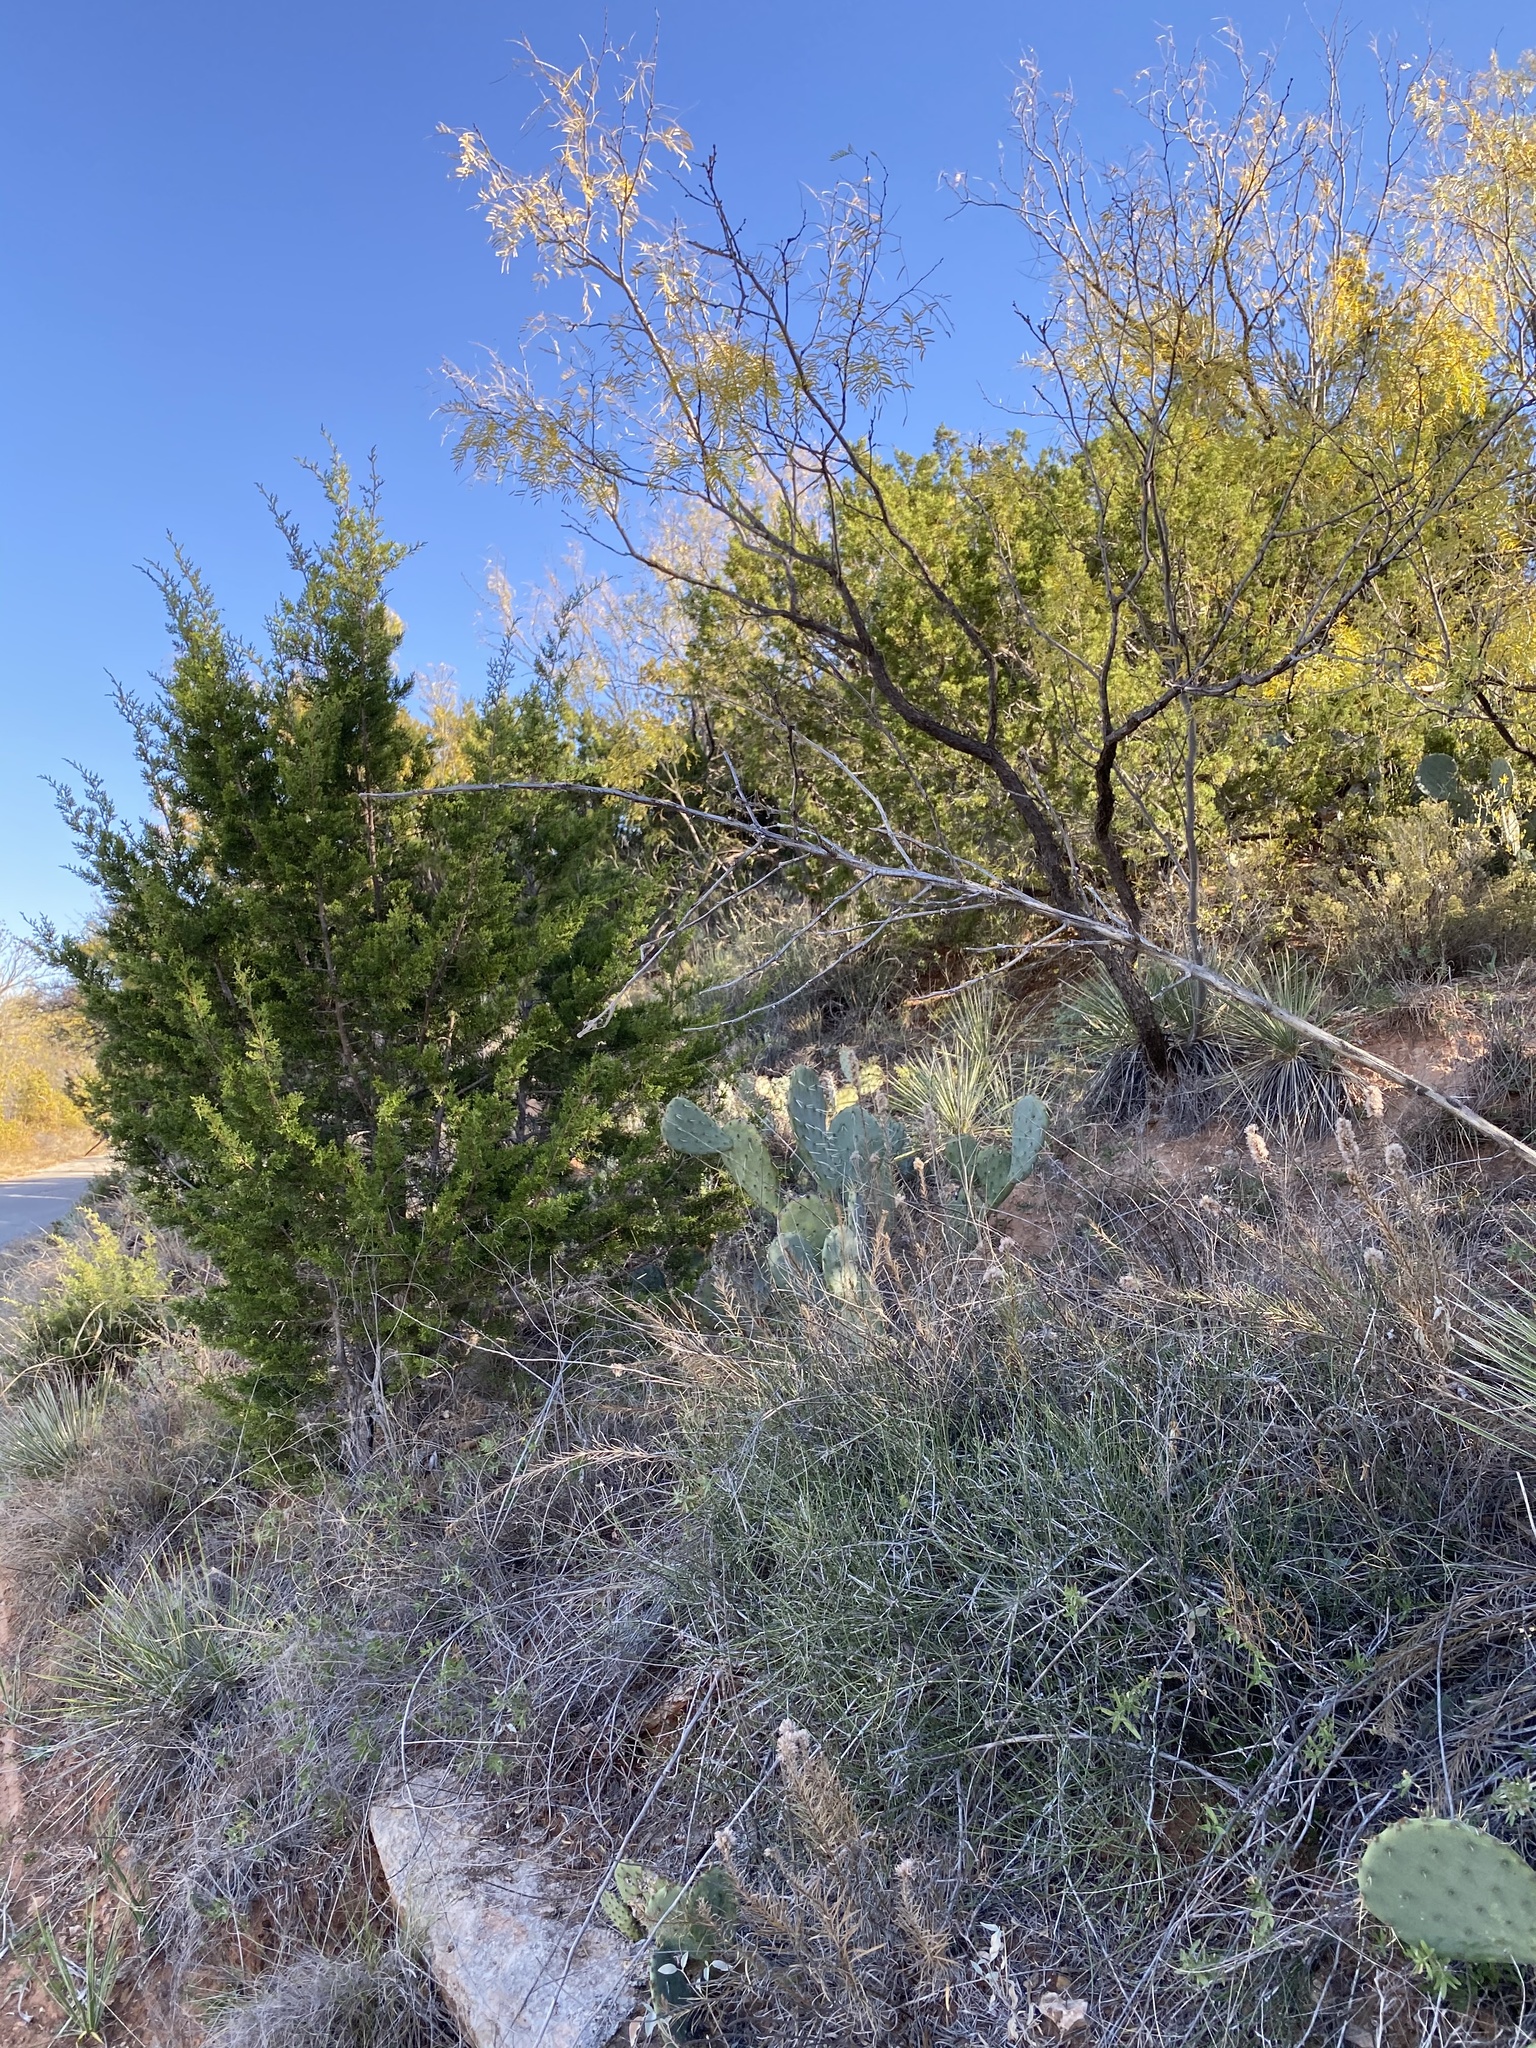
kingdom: Plantae
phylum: Tracheophyta
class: Liliopsida
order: Asparagales
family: Asparagaceae
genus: Yucca
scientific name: Yucca filamentosa
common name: Adam's-needle
